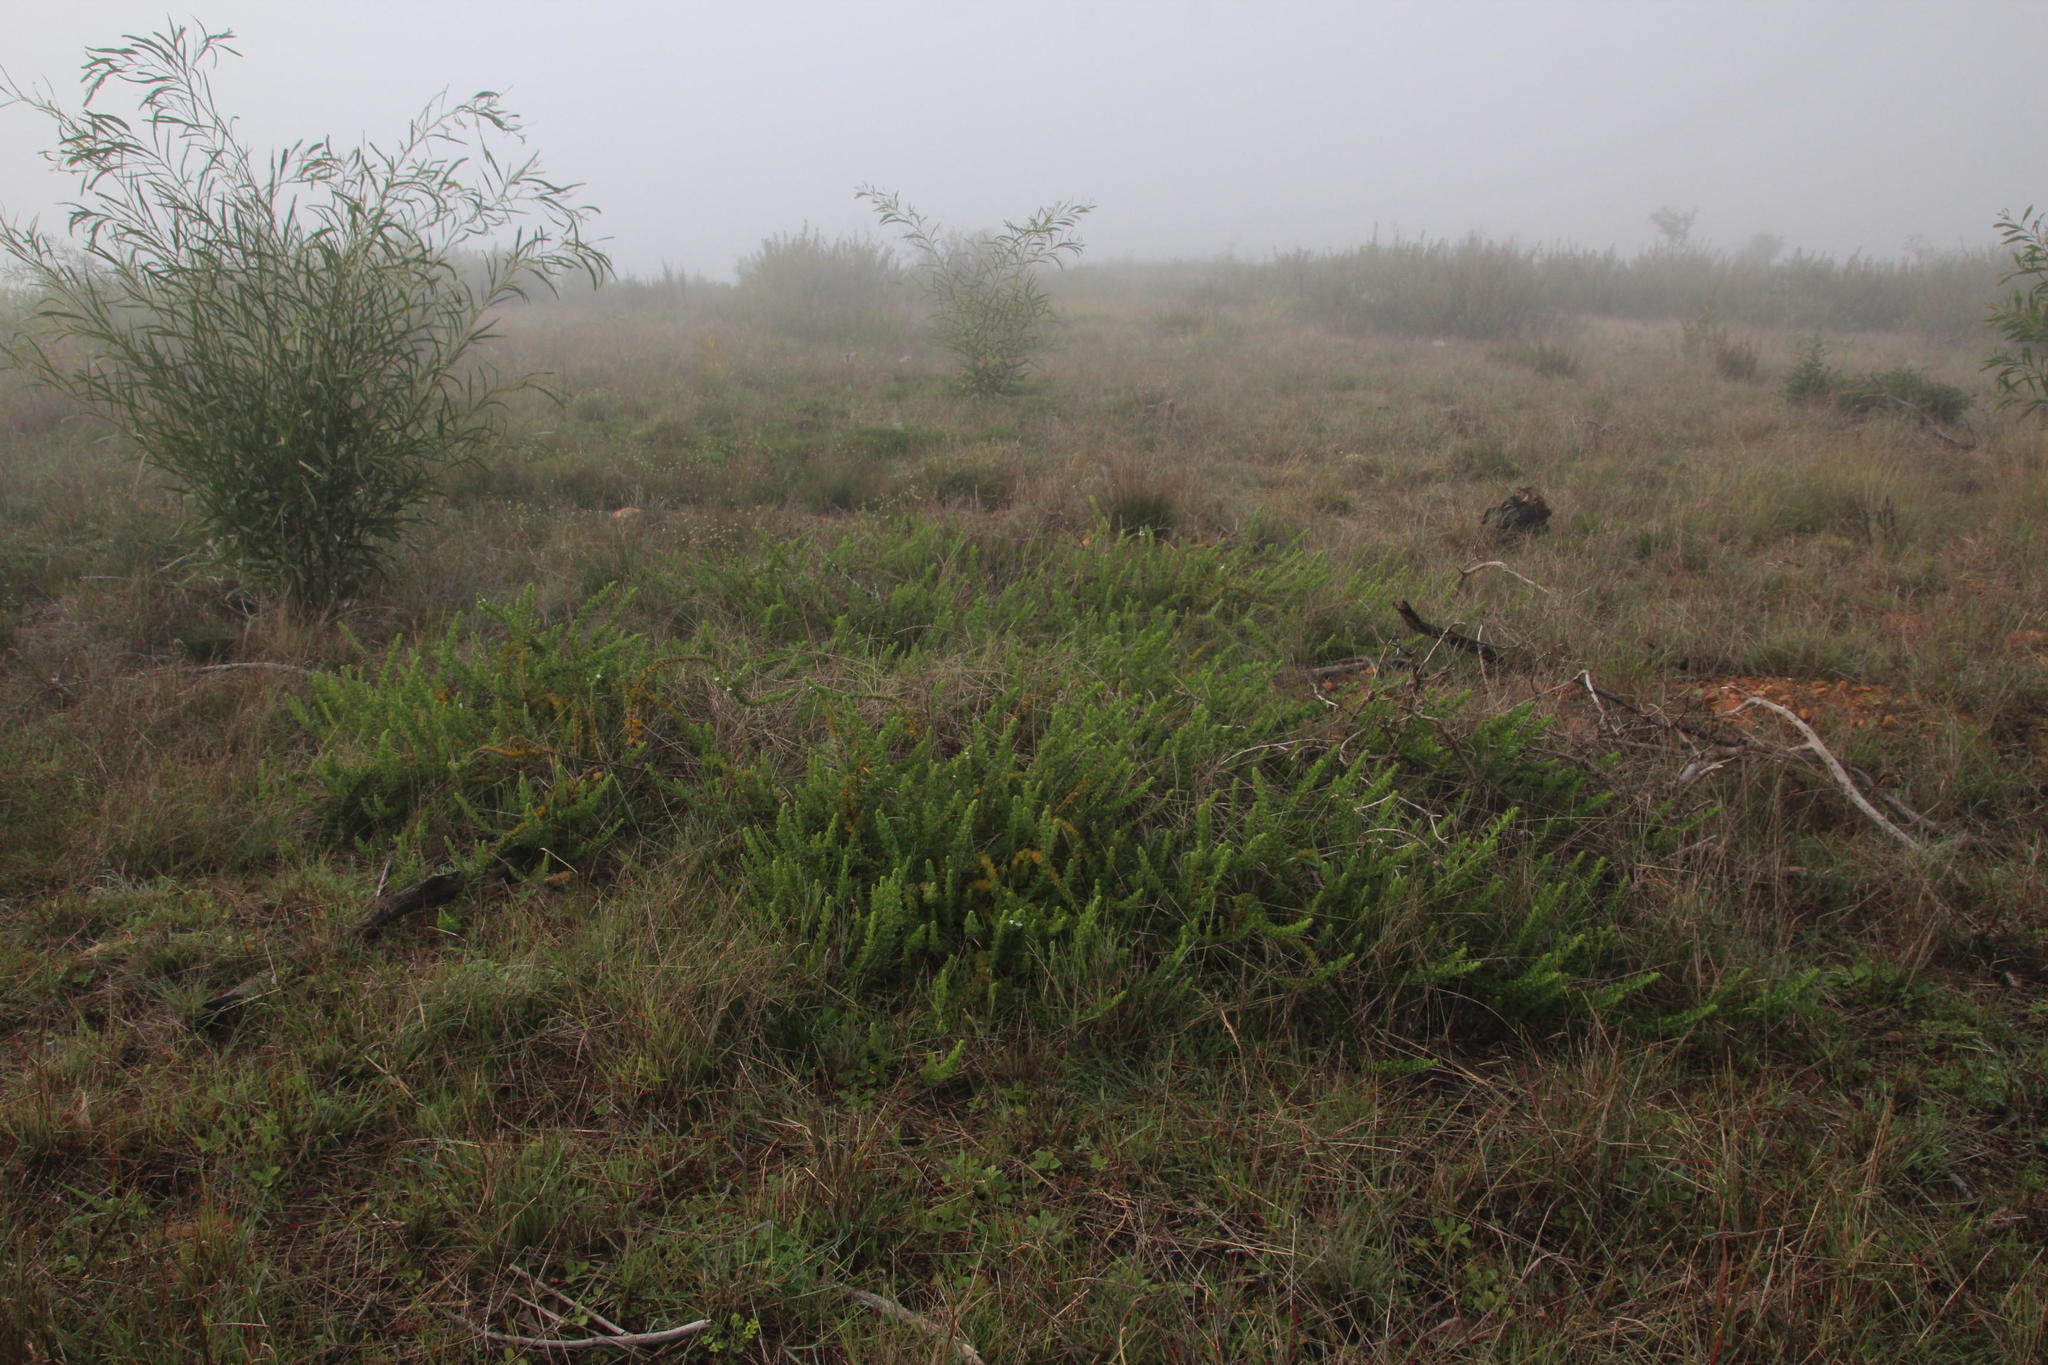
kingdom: Plantae
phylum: Tracheophyta
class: Magnoliopsida
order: Lamiales
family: Scrophulariaceae
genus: Oftia
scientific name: Oftia africana
